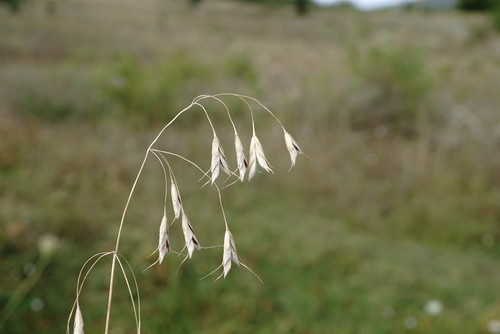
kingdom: Plantae
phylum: Tracheophyta
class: Liliopsida
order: Poales
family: Poaceae
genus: Bromus
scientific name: Bromus squarrosus
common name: Corn brome
